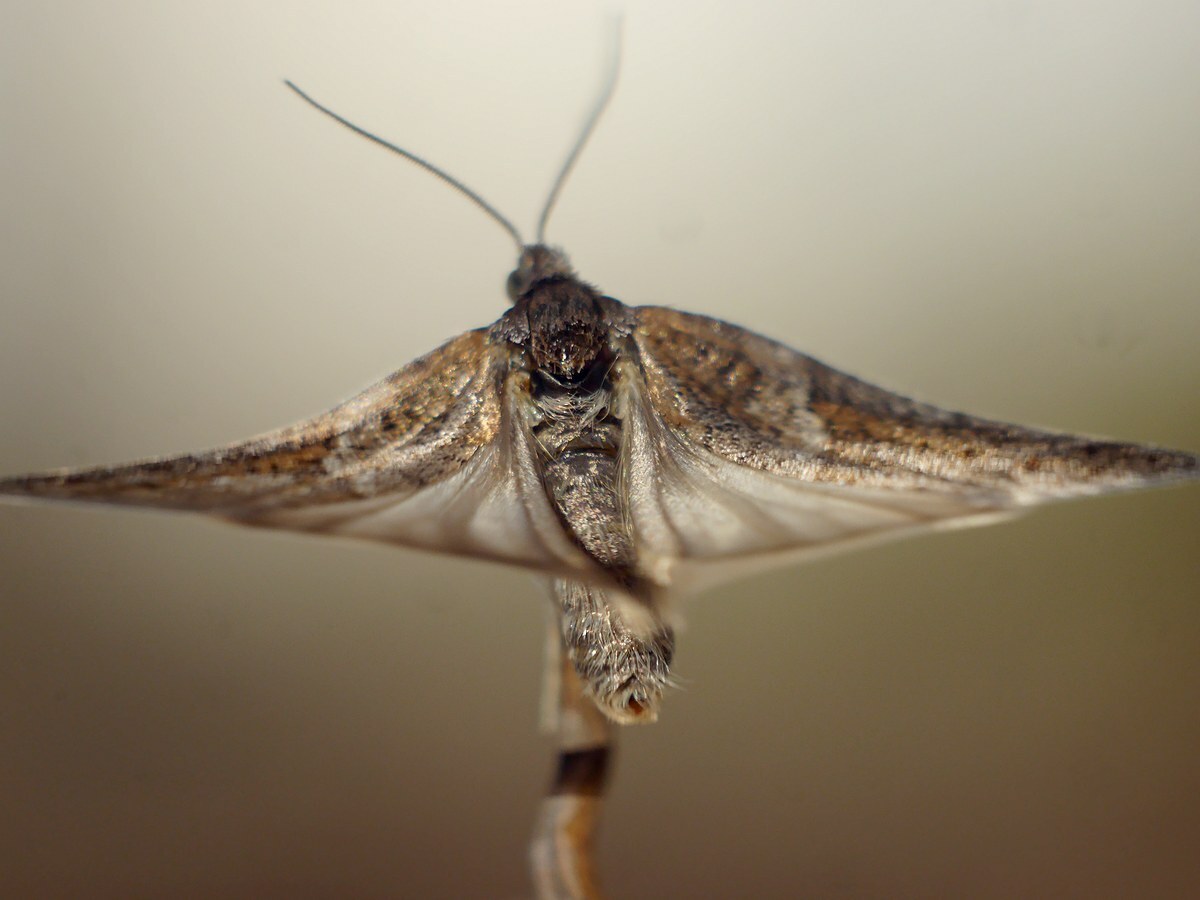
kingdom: Animalia
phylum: Arthropoda
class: Insecta
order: Lepidoptera
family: Tortricidae
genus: Tortricodes
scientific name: Tortricodes alternella
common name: Winter shade
